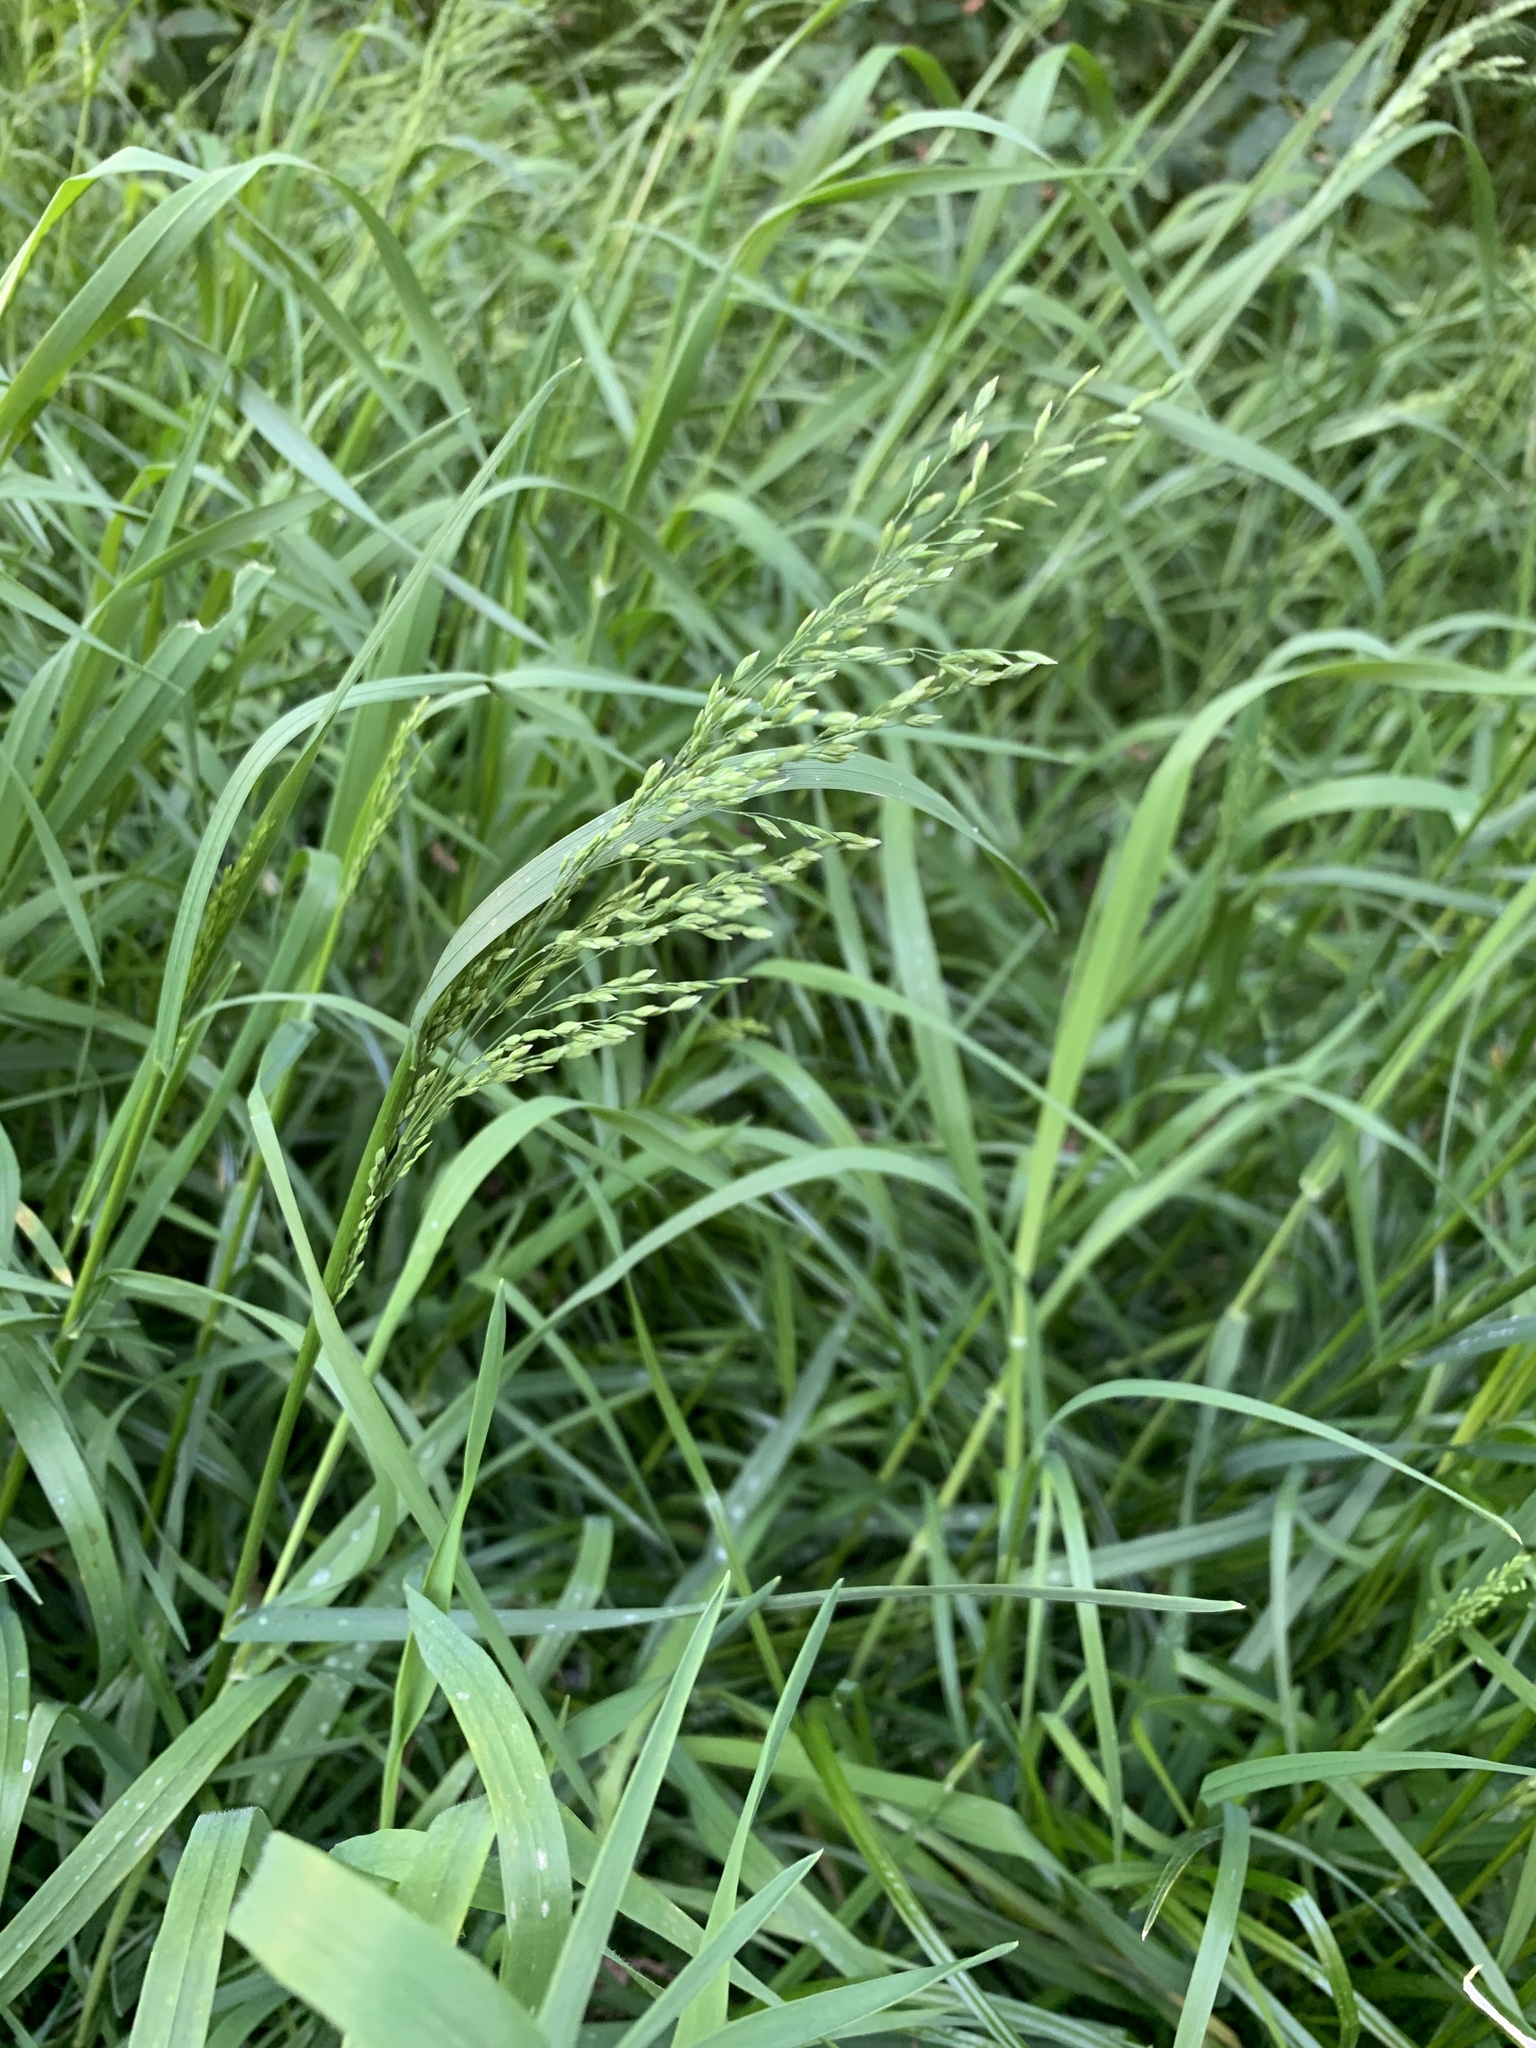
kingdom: Plantae
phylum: Tracheophyta
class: Liliopsida
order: Poales
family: Poaceae
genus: Poa
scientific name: Poa pratensis
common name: Kentucky bluegrass
